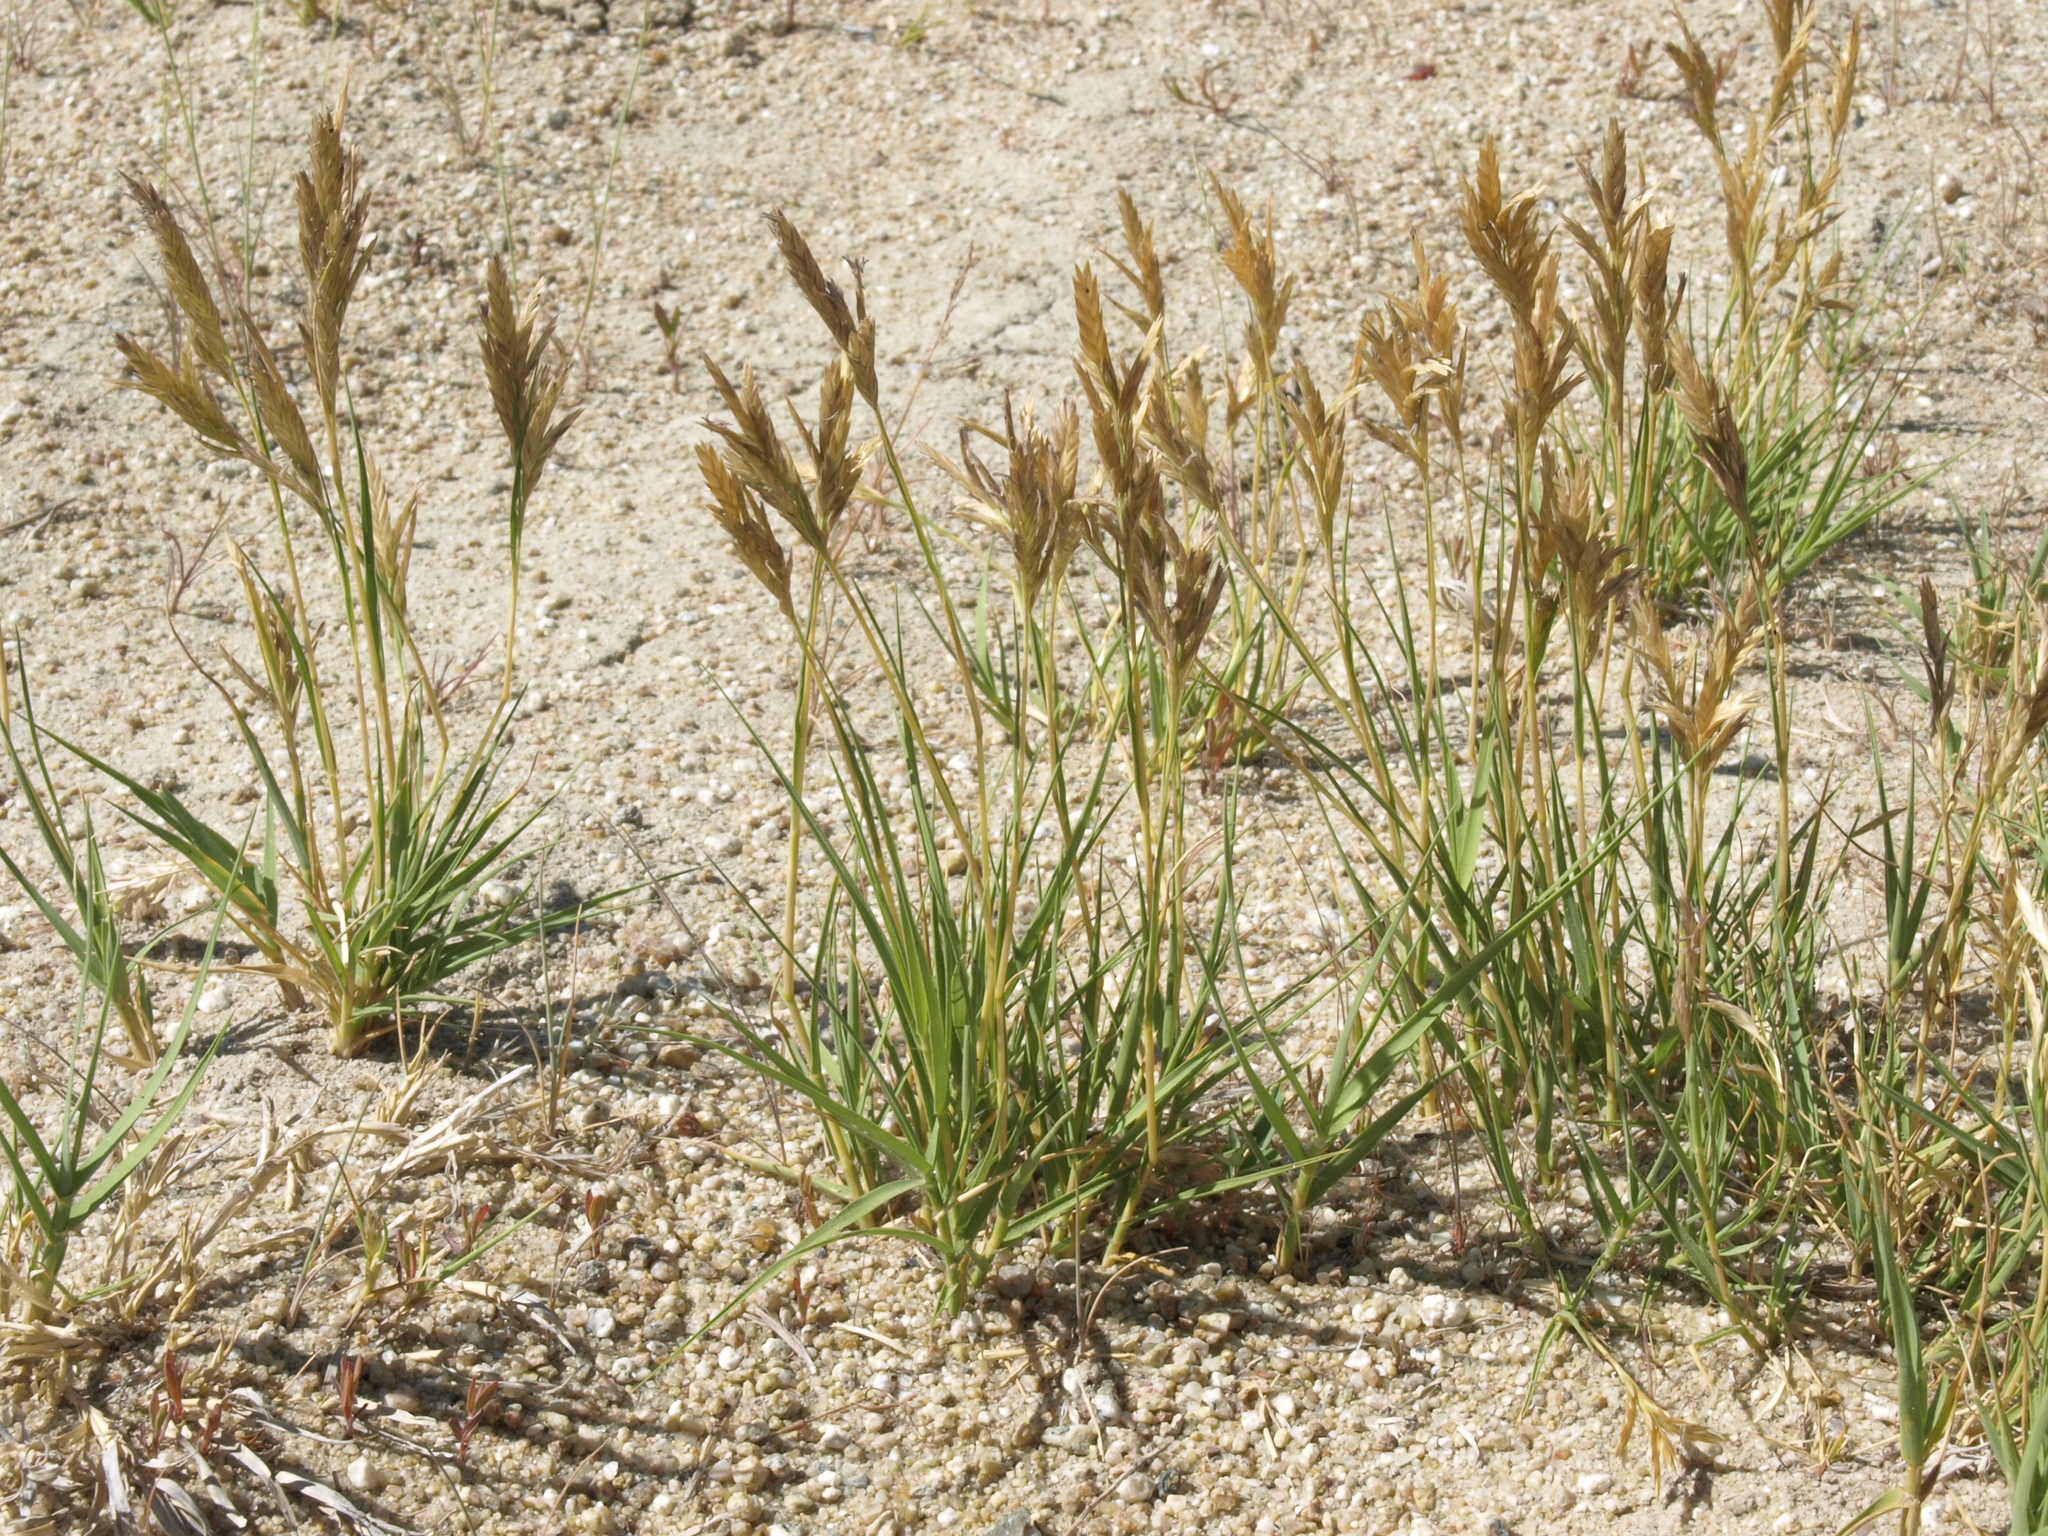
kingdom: Plantae
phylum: Tracheophyta
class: Liliopsida
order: Poales
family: Poaceae
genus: Distichlis
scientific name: Distichlis spicata
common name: Saltgrass
